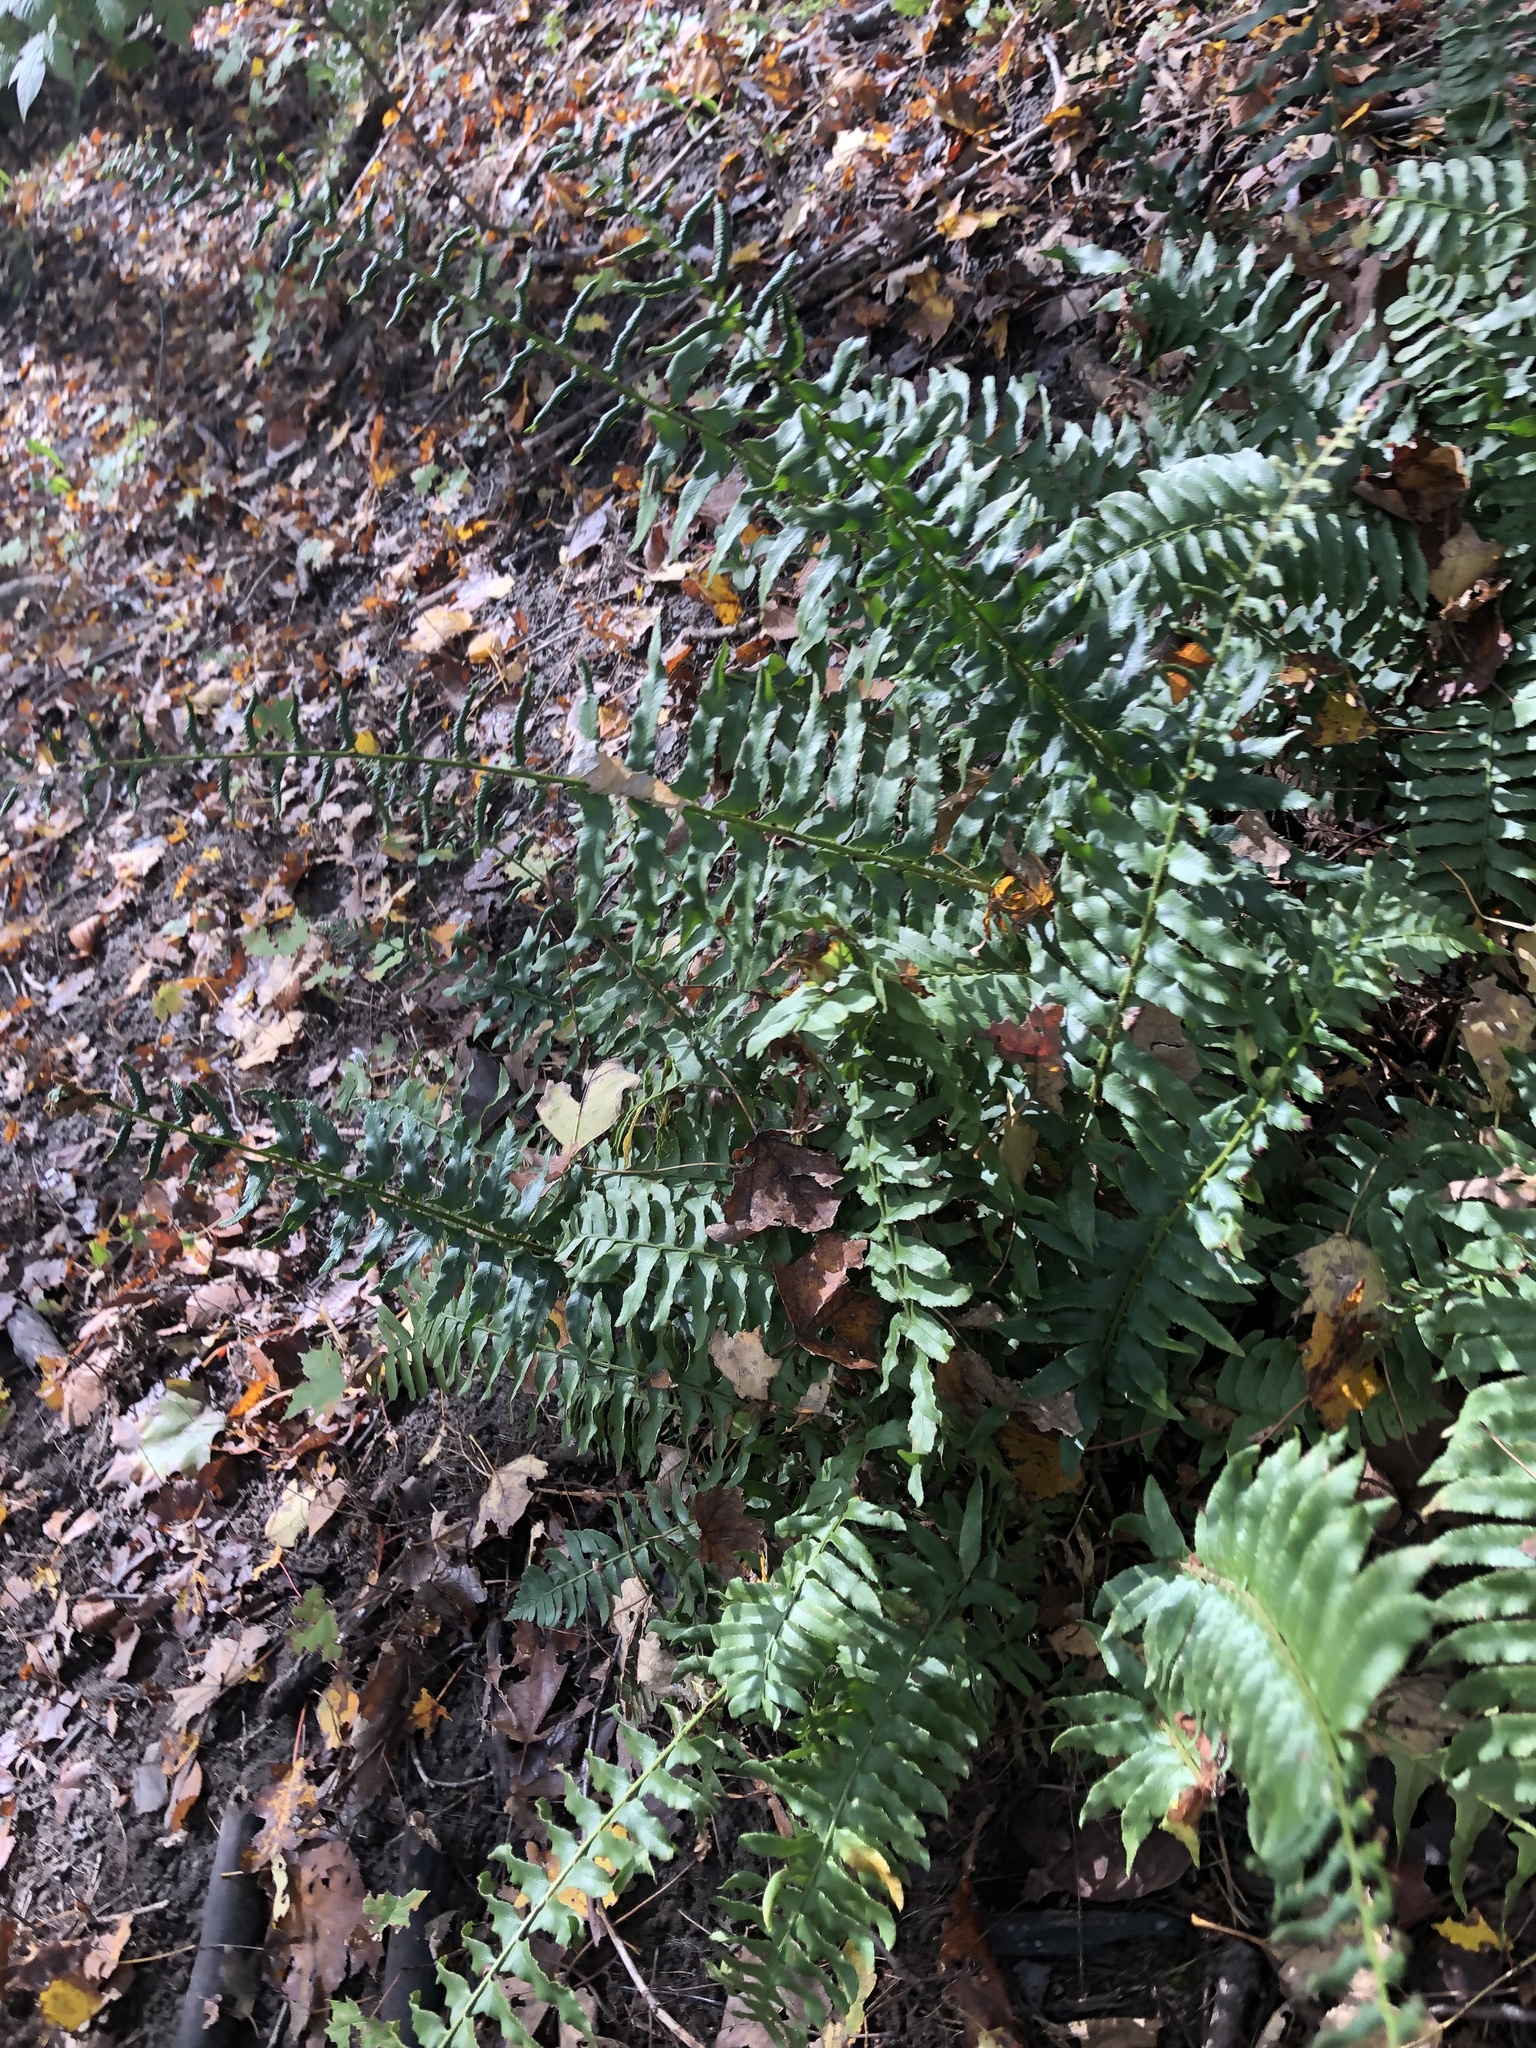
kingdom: Plantae
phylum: Tracheophyta
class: Polypodiopsida
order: Polypodiales
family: Dryopteridaceae
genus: Polystichum
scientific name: Polystichum acrostichoides
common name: Christmas fern
